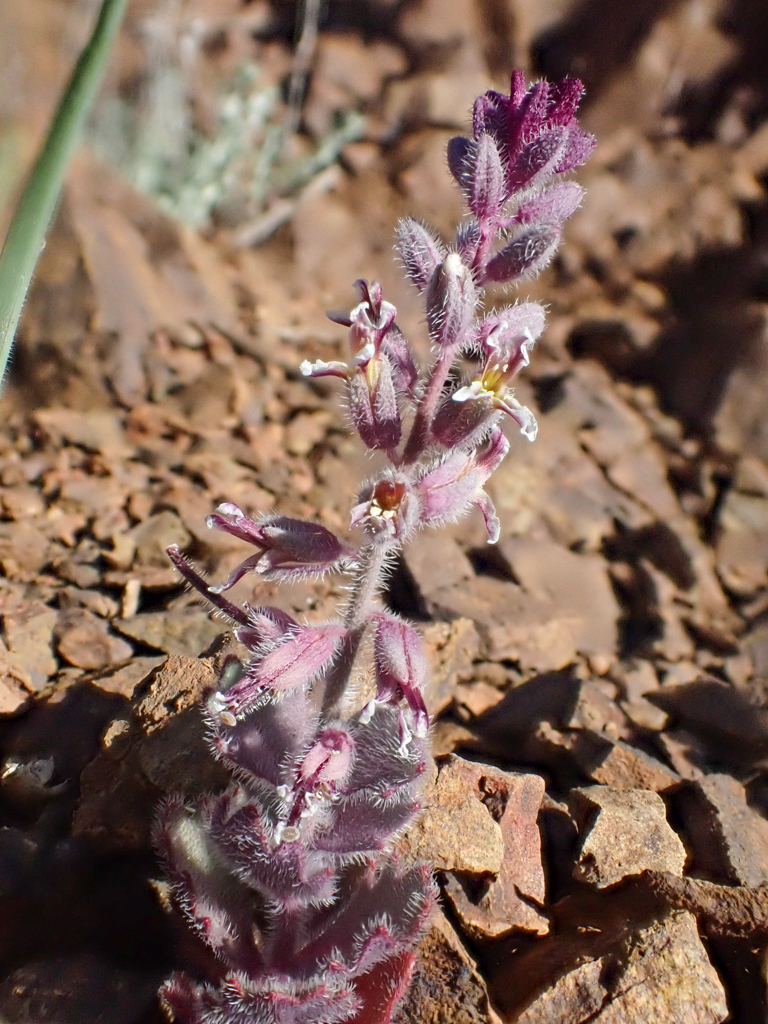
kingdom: Plantae
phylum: Tracheophyta
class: Magnoliopsida
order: Brassicales
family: Brassicaceae
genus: Streptanthus
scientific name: Streptanthus hispidus
